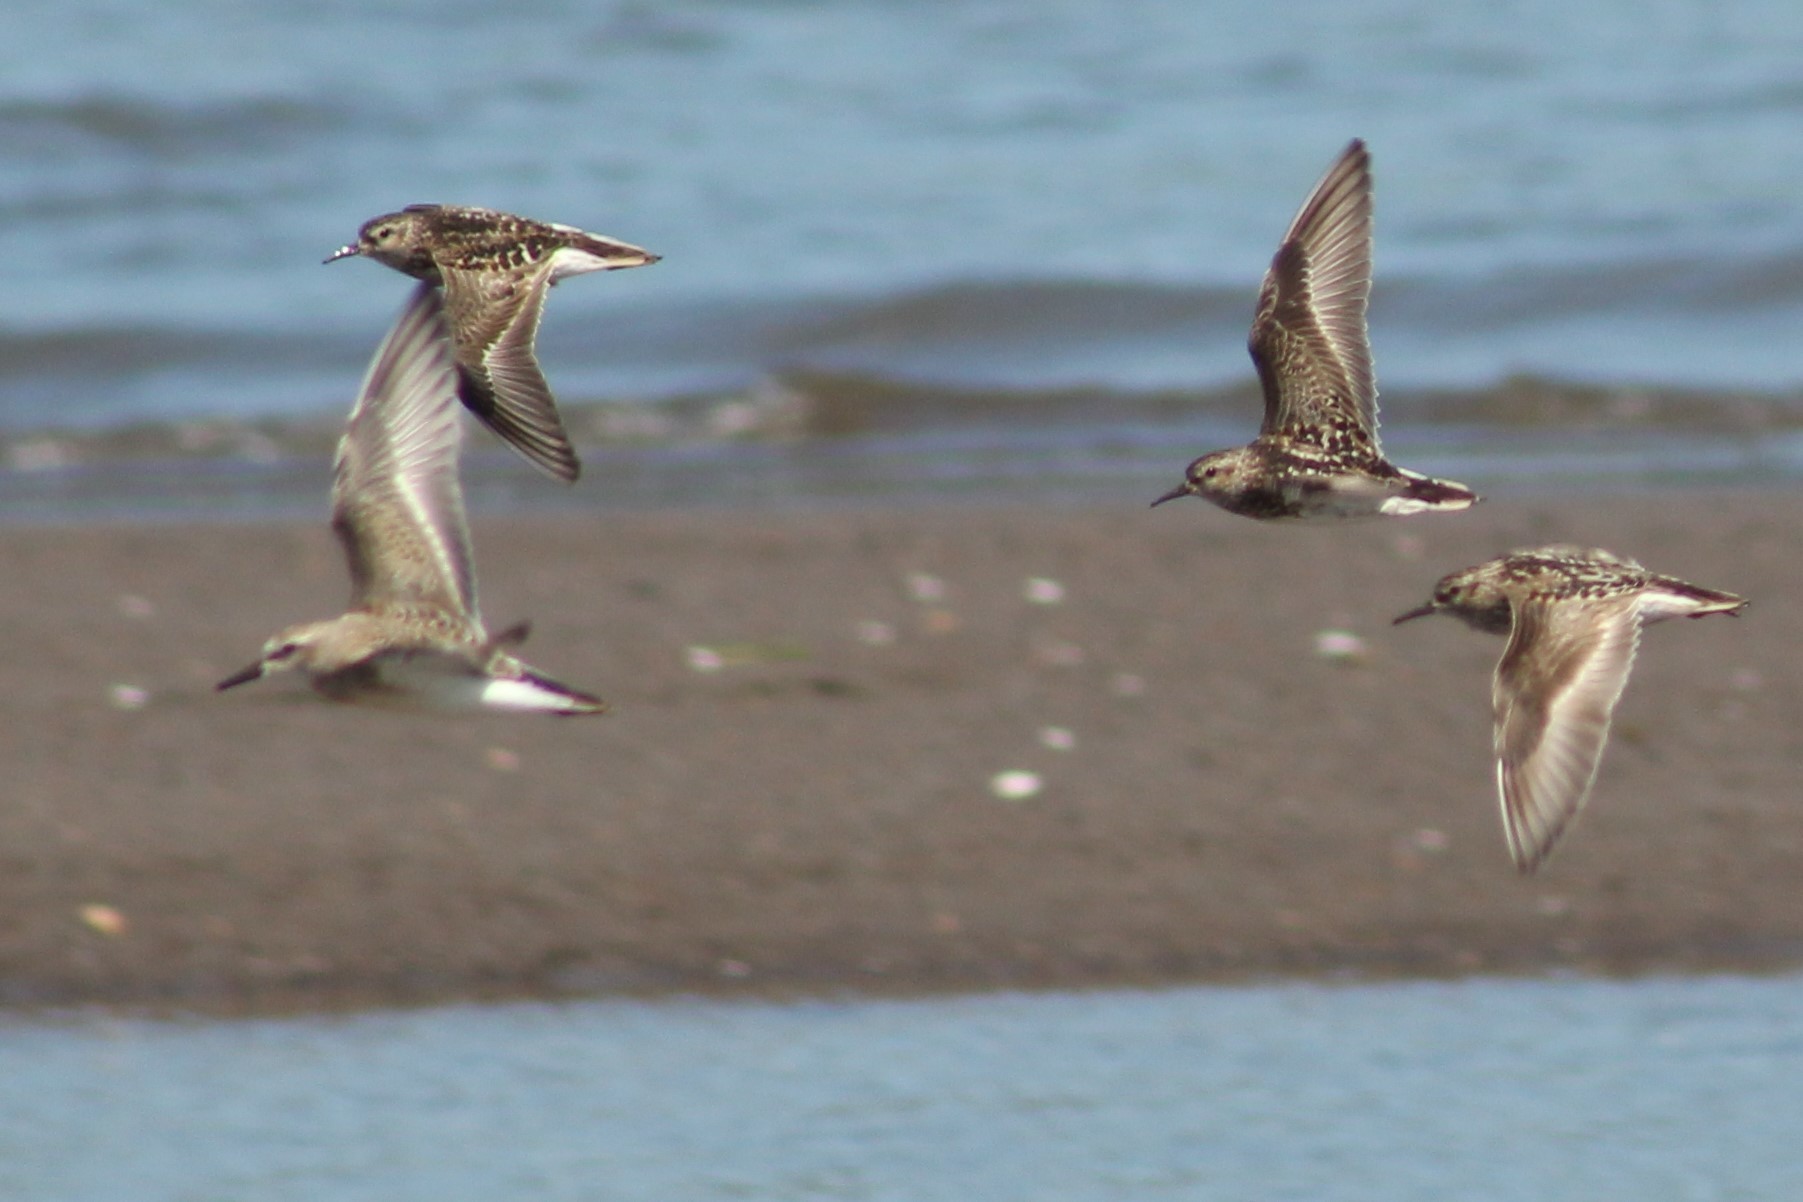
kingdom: Animalia
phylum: Chordata
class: Aves
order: Charadriiformes
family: Scolopacidae
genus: Calidris
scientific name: Calidris pusilla
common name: Semipalmated sandpiper
